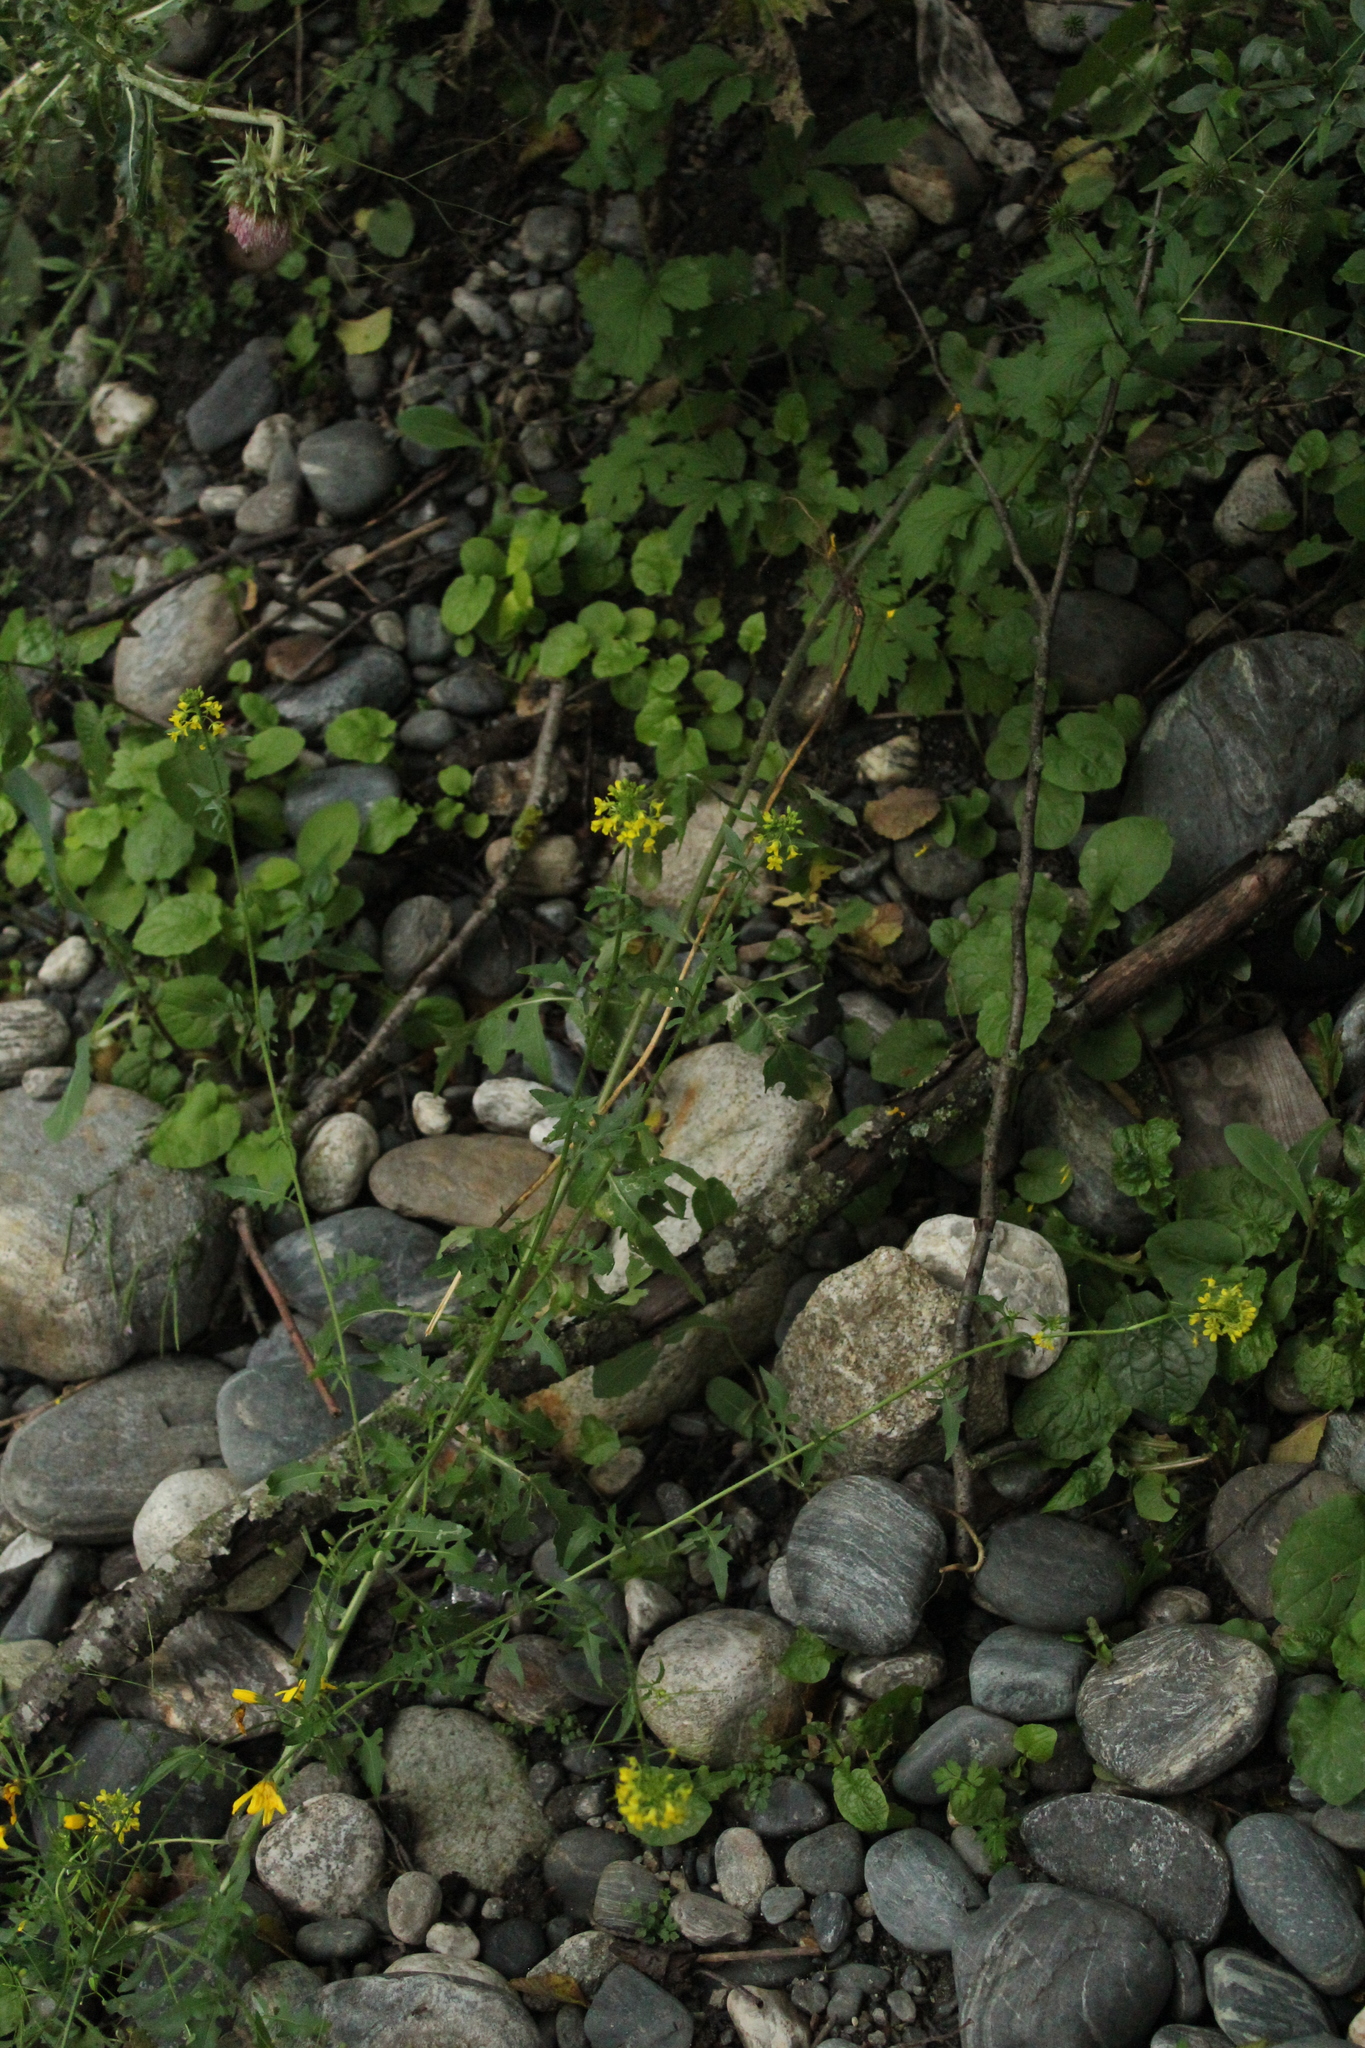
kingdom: Plantae
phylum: Tracheophyta
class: Magnoliopsida
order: Brassicales
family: Brassicaceae
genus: Sisymbrium
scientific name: Sisymbrium loeselii
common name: False london-rocket
